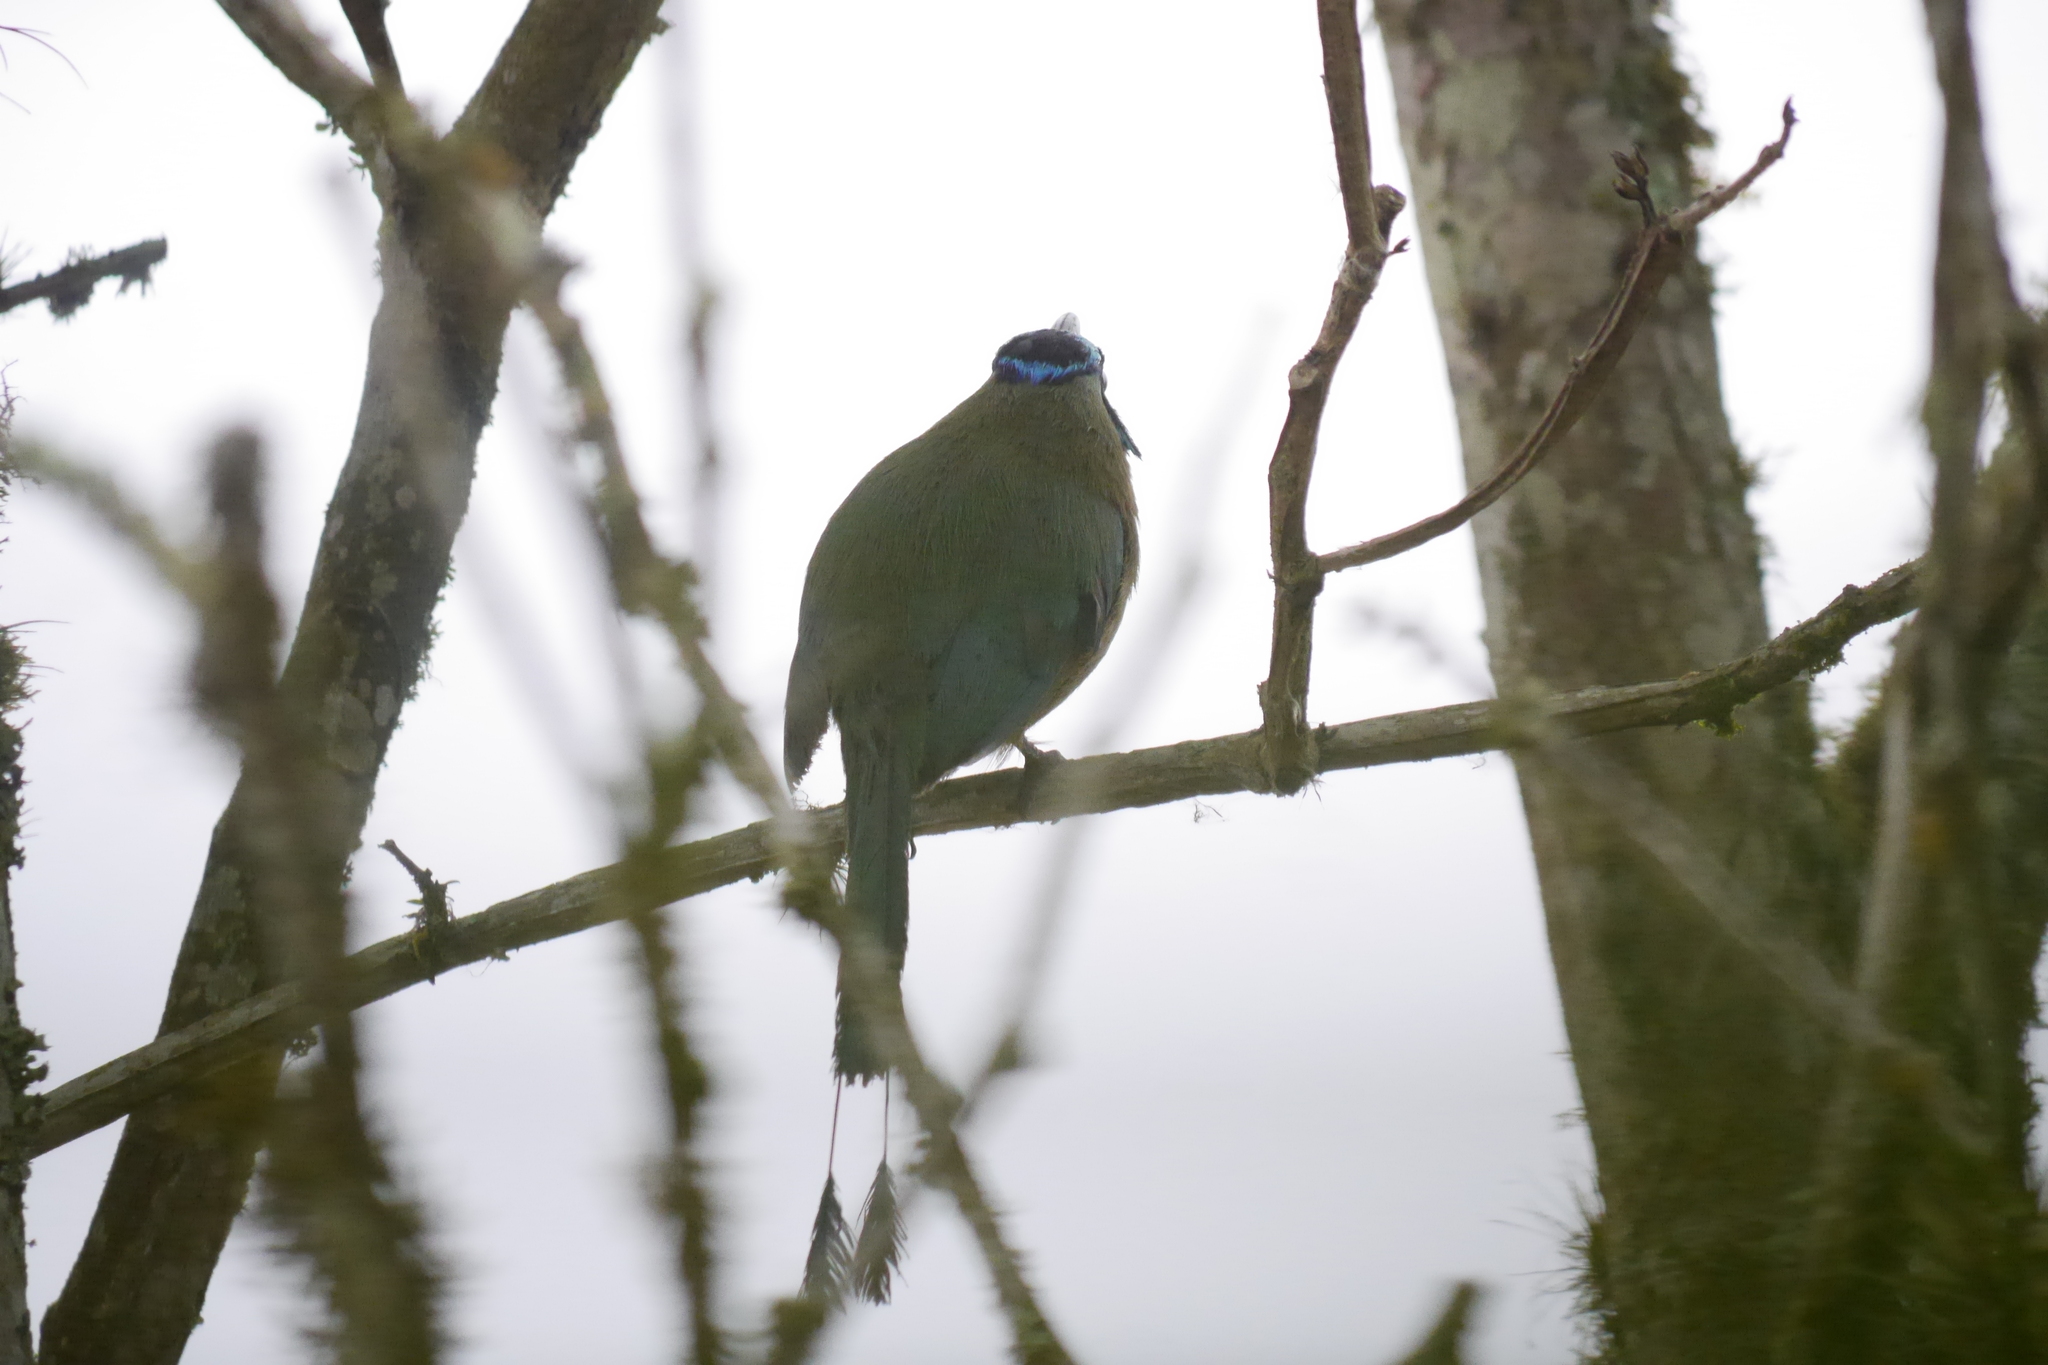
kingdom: Animalia
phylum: Chordata
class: Aves
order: Coraciiformes
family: Momotidae
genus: Momotus
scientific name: Momotus subrufescens
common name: Whooping motmot
